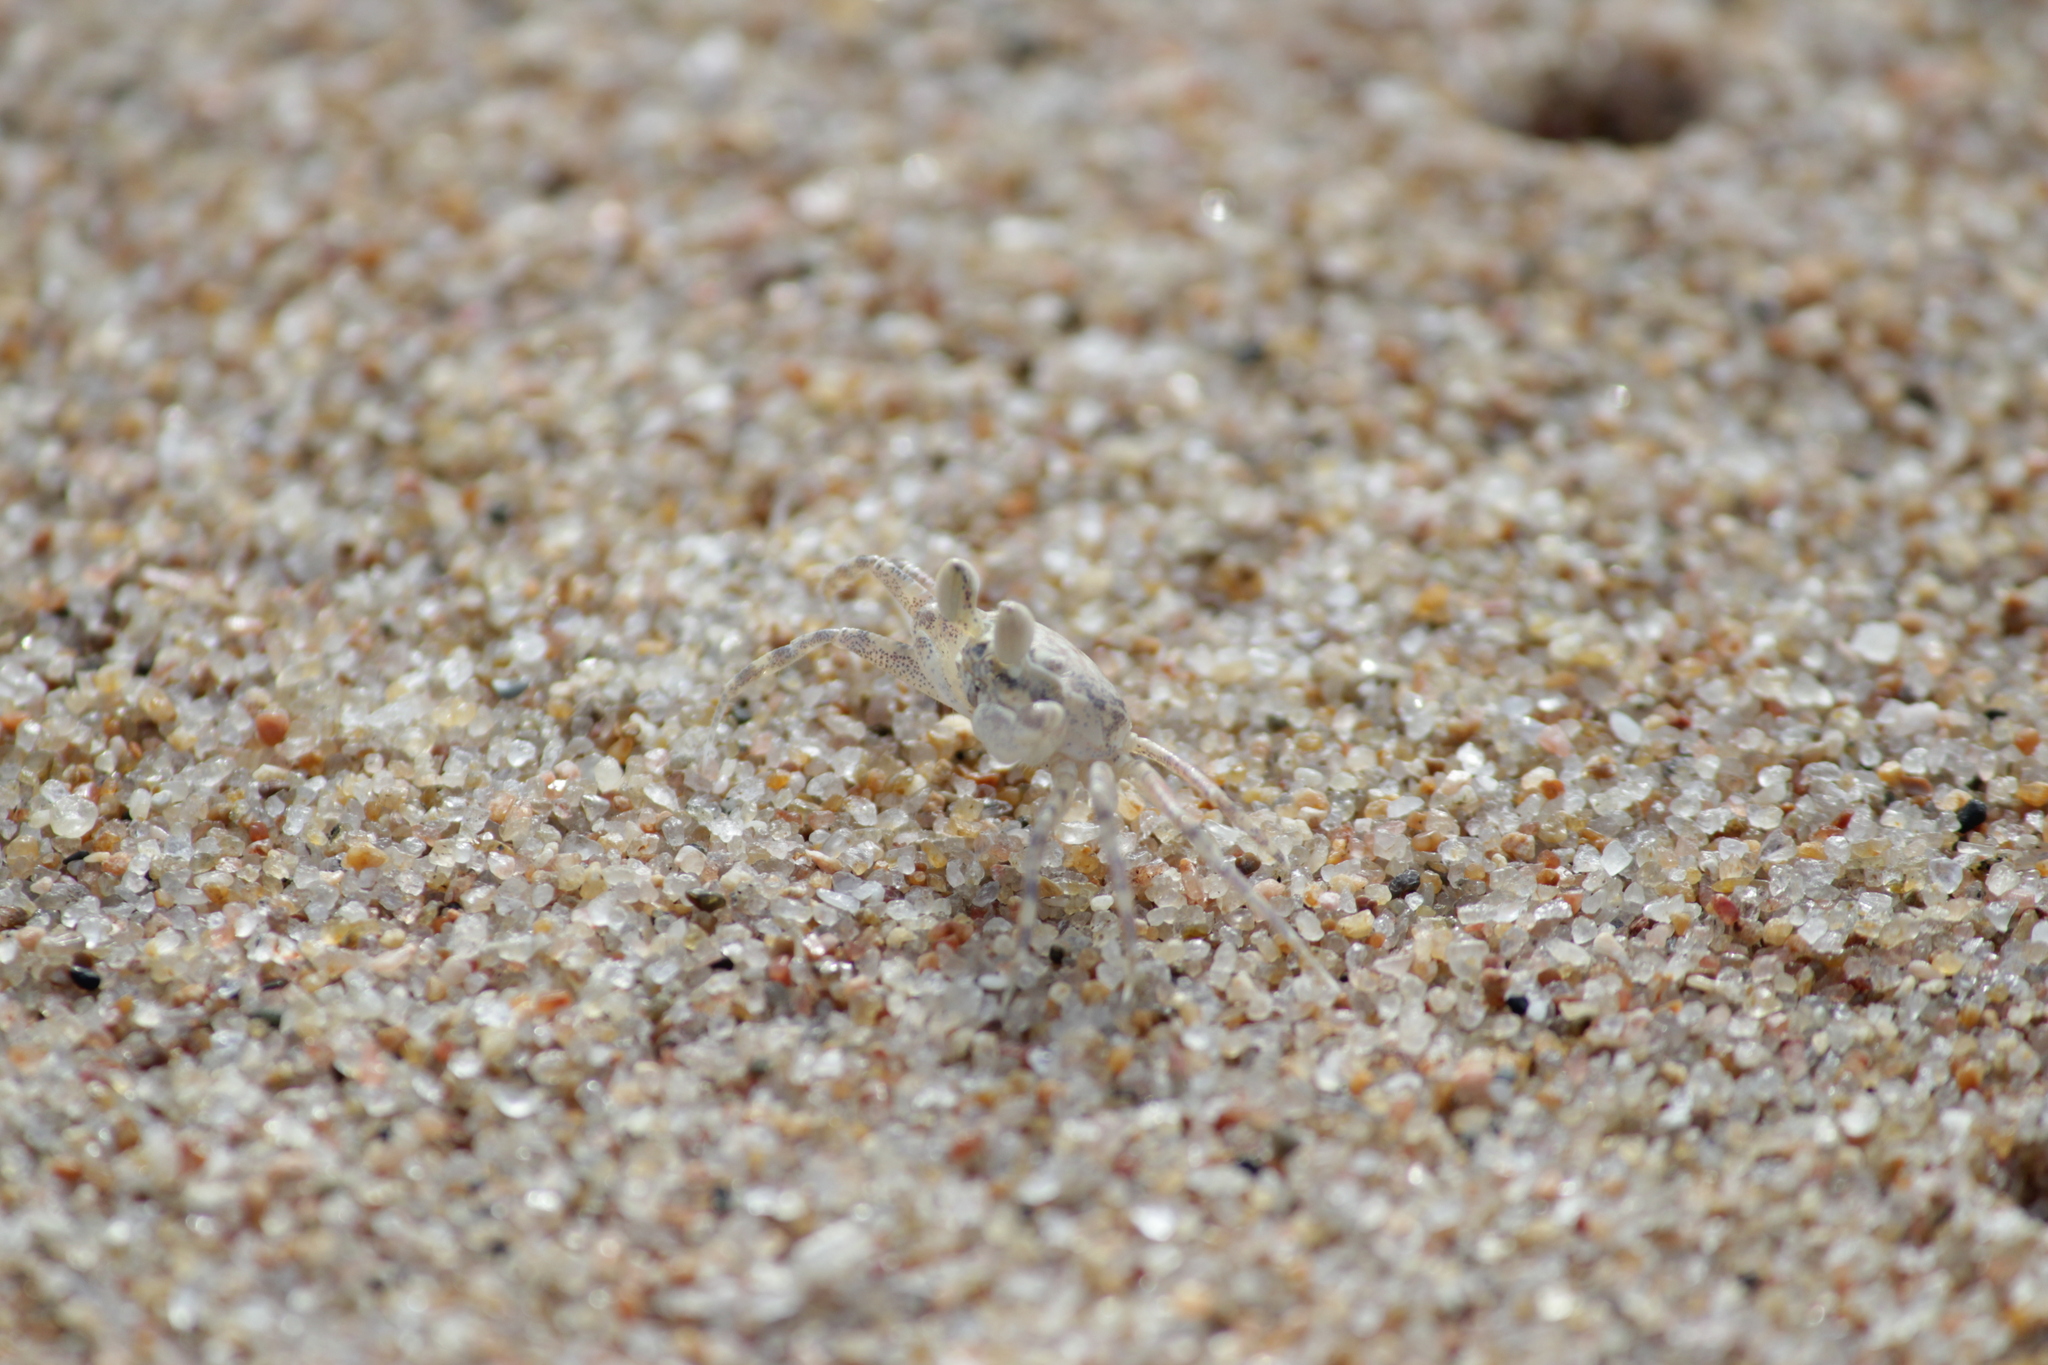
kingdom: Animalia
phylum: Arthropoda
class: Malacostraca
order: Decapoda
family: Ocypodidae
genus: Ocypode
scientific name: Ocypode
